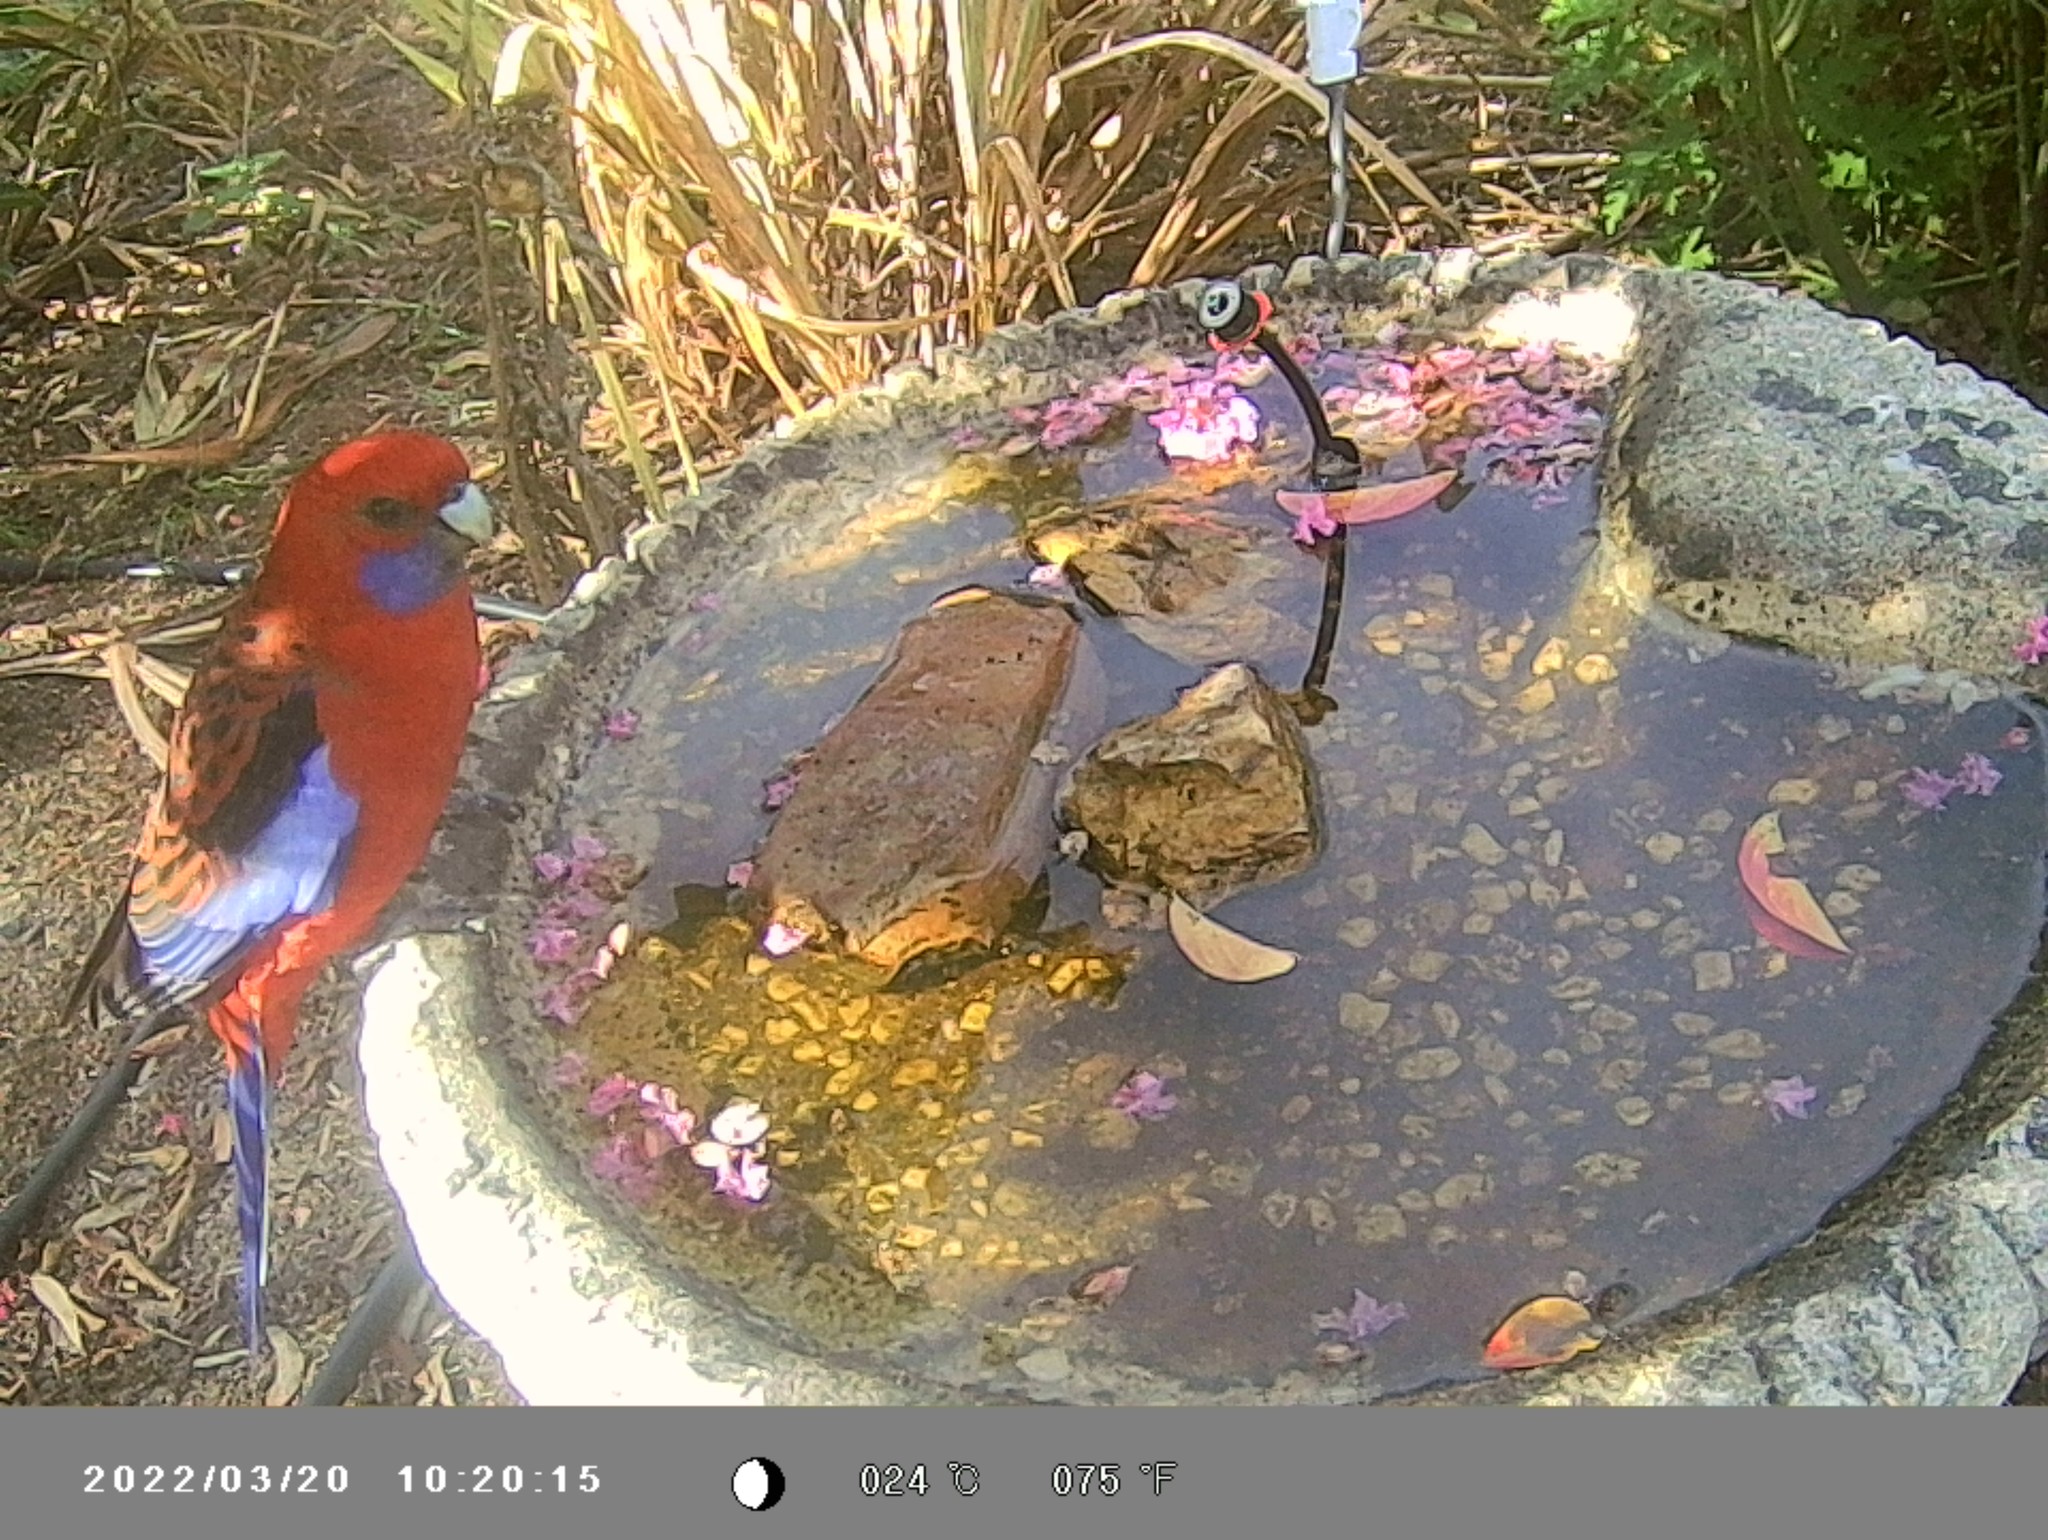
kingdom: Animalia
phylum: Chordata
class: Aves
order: Psittaciformes
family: Psittacidae
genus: Platycercus
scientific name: Platycercus elegans
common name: Crimson rosella
